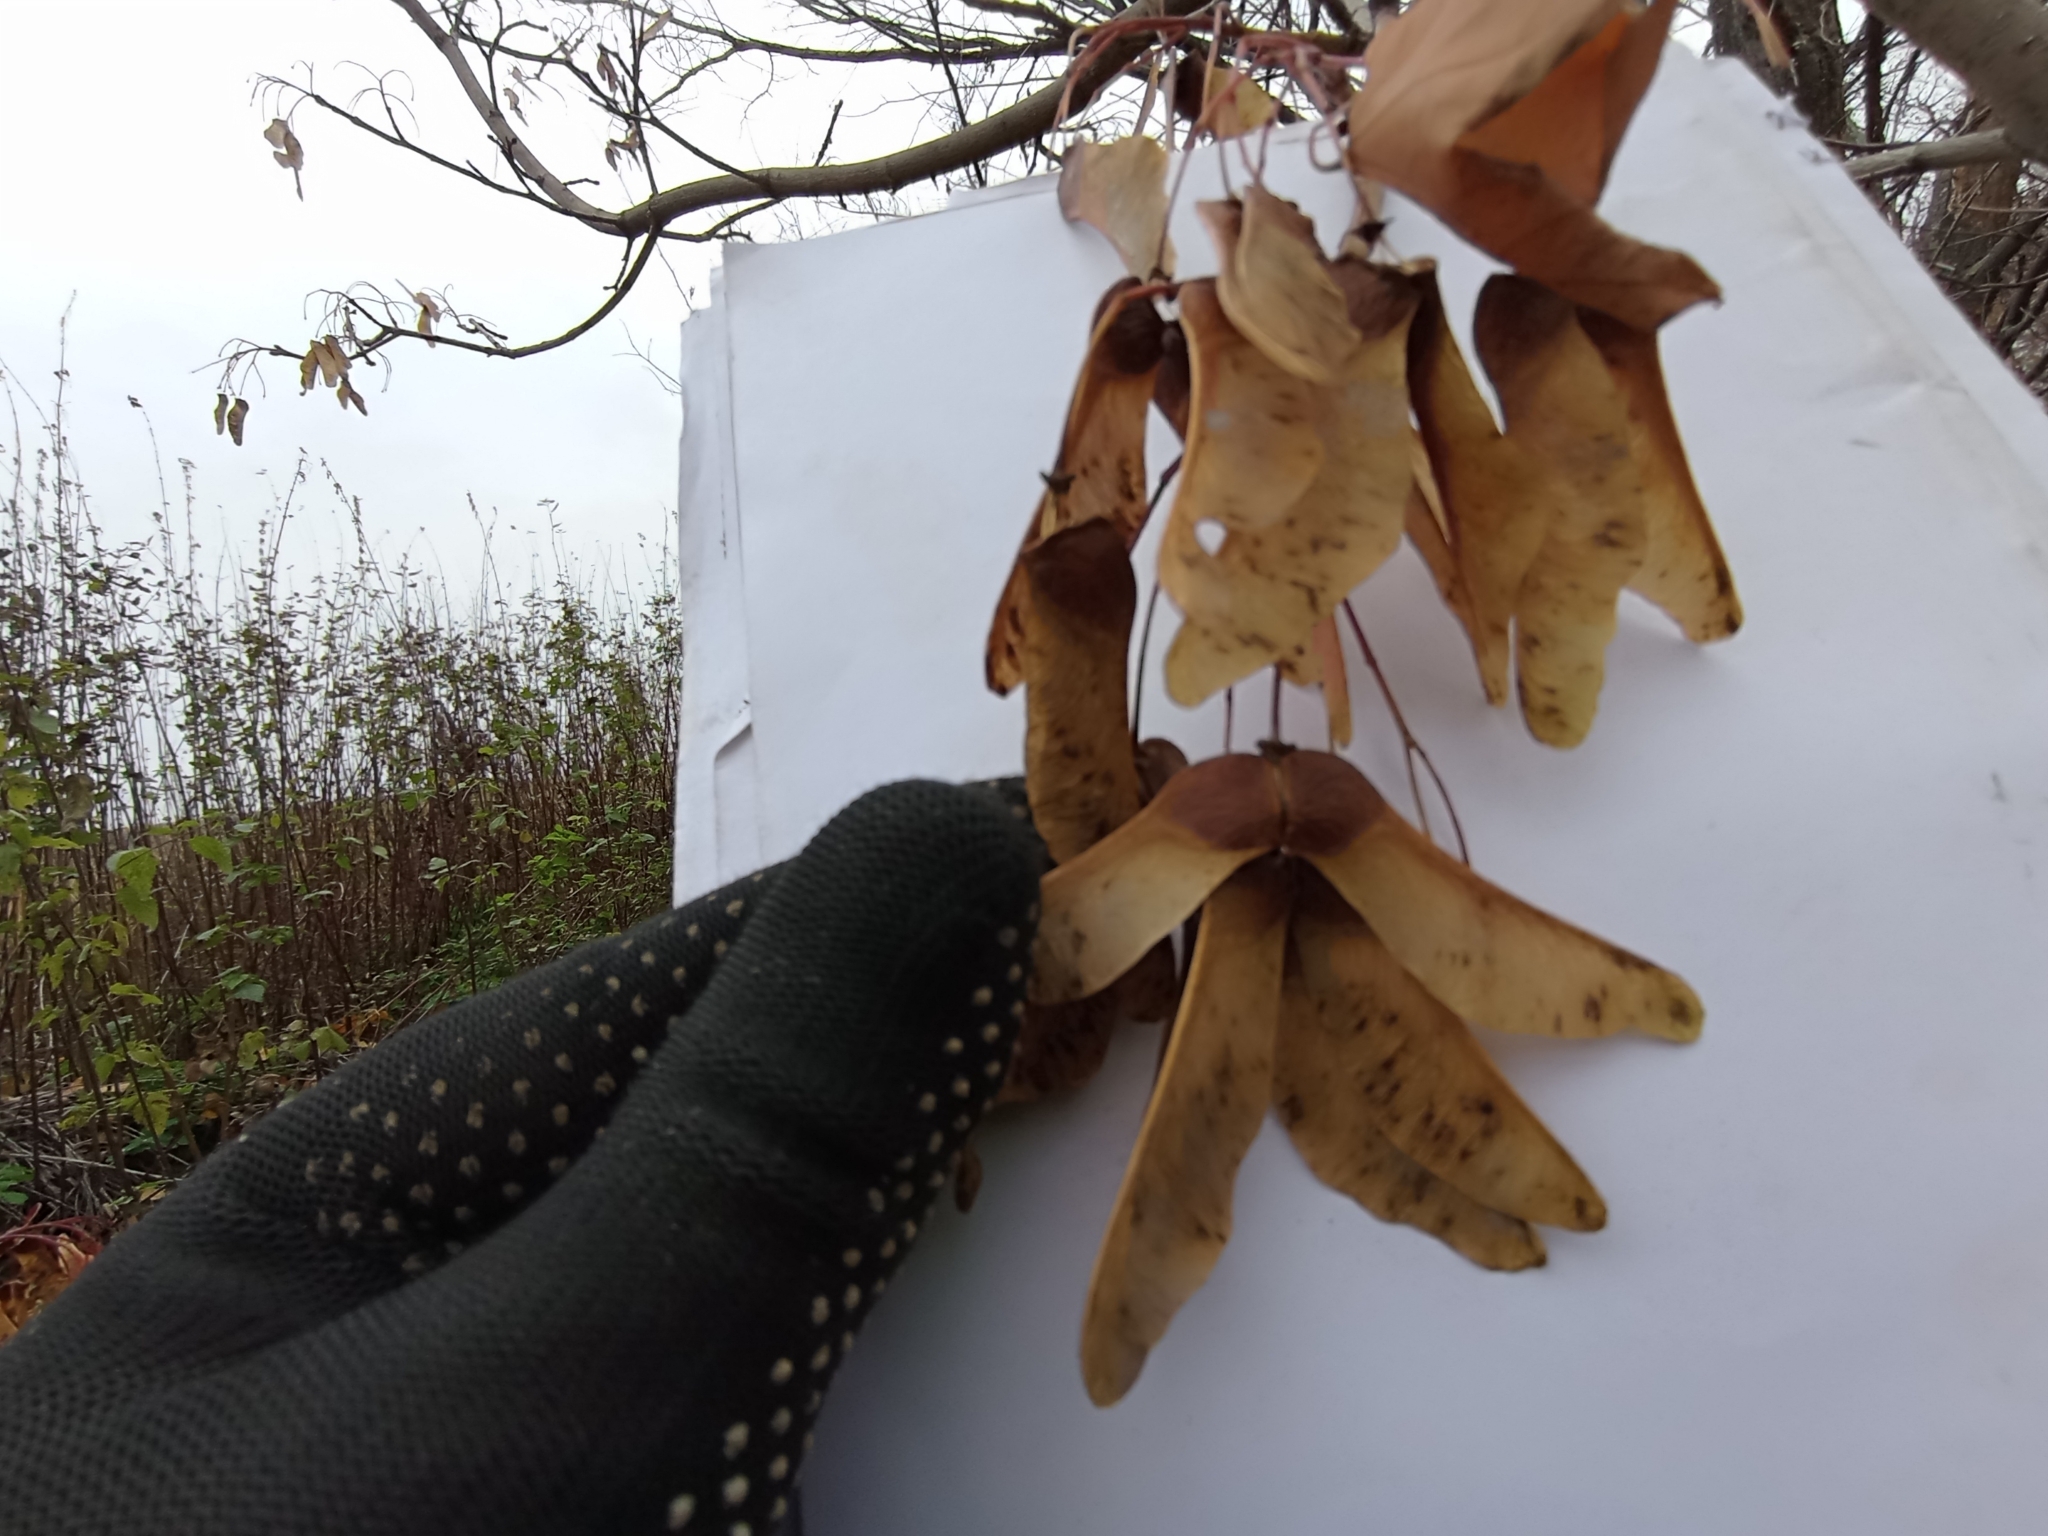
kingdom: Plantae
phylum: Tracheophyta
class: Magnoliopsida
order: Sapindales
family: Sapindaceae
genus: Acer
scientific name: Acer platanoides
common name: Norway maple
